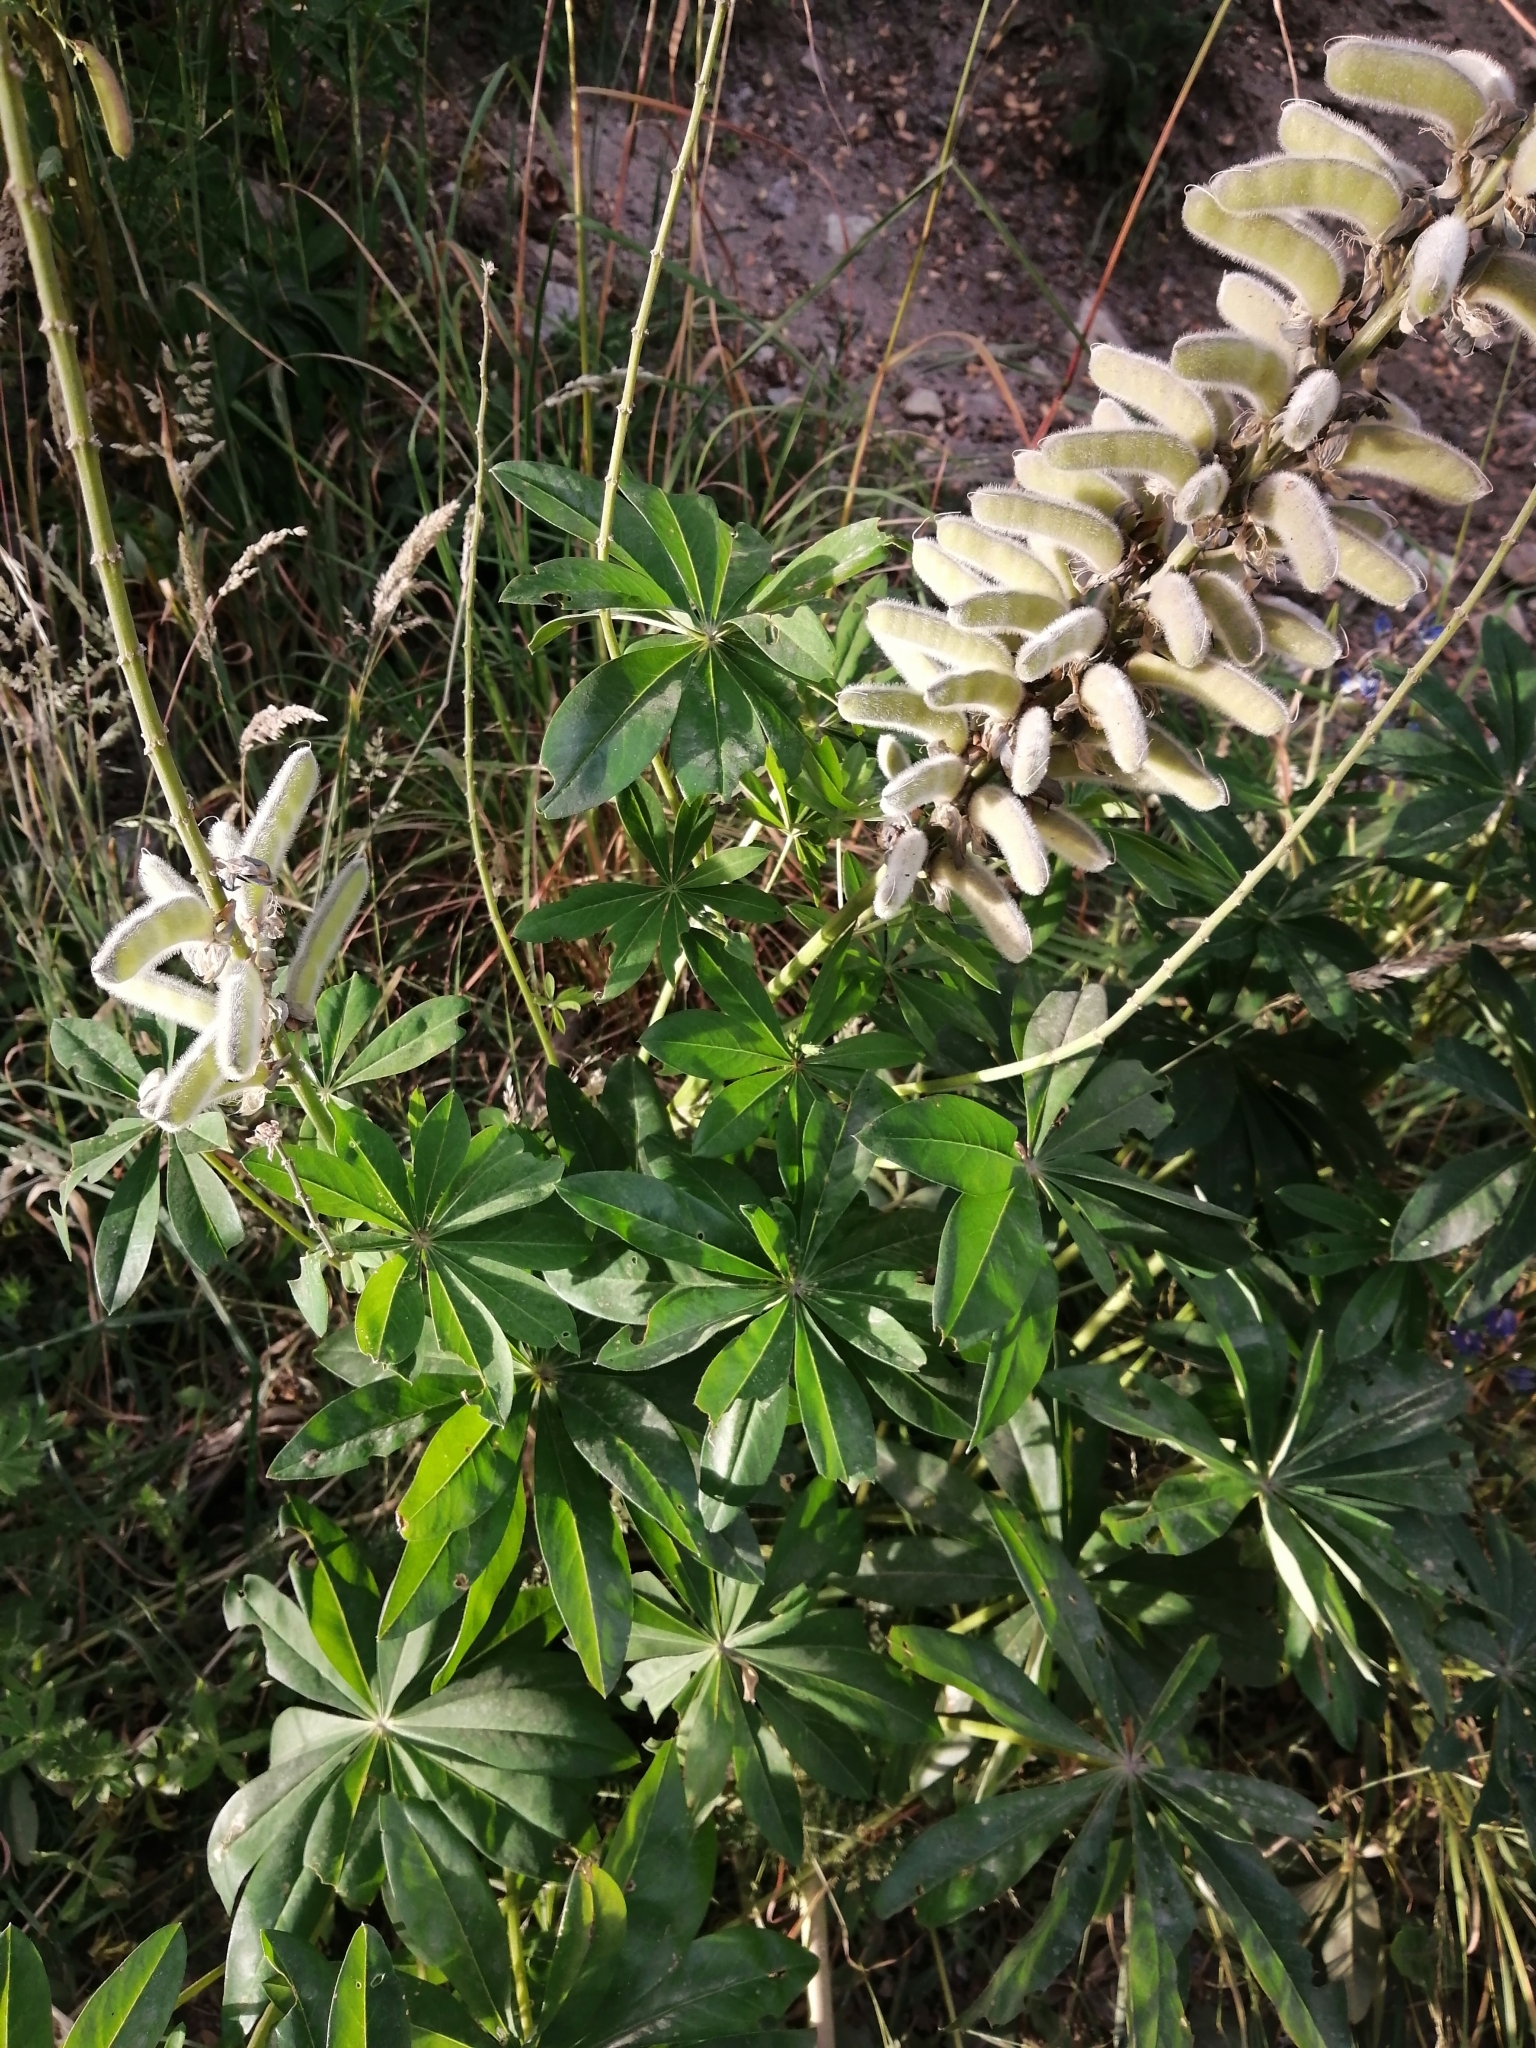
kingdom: Plantae
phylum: Tracheophyta
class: Magnoliopsida
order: Fabales
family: Fabaceae
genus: Lupinus
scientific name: Lupinus polyphyllus
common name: Garden lupin
